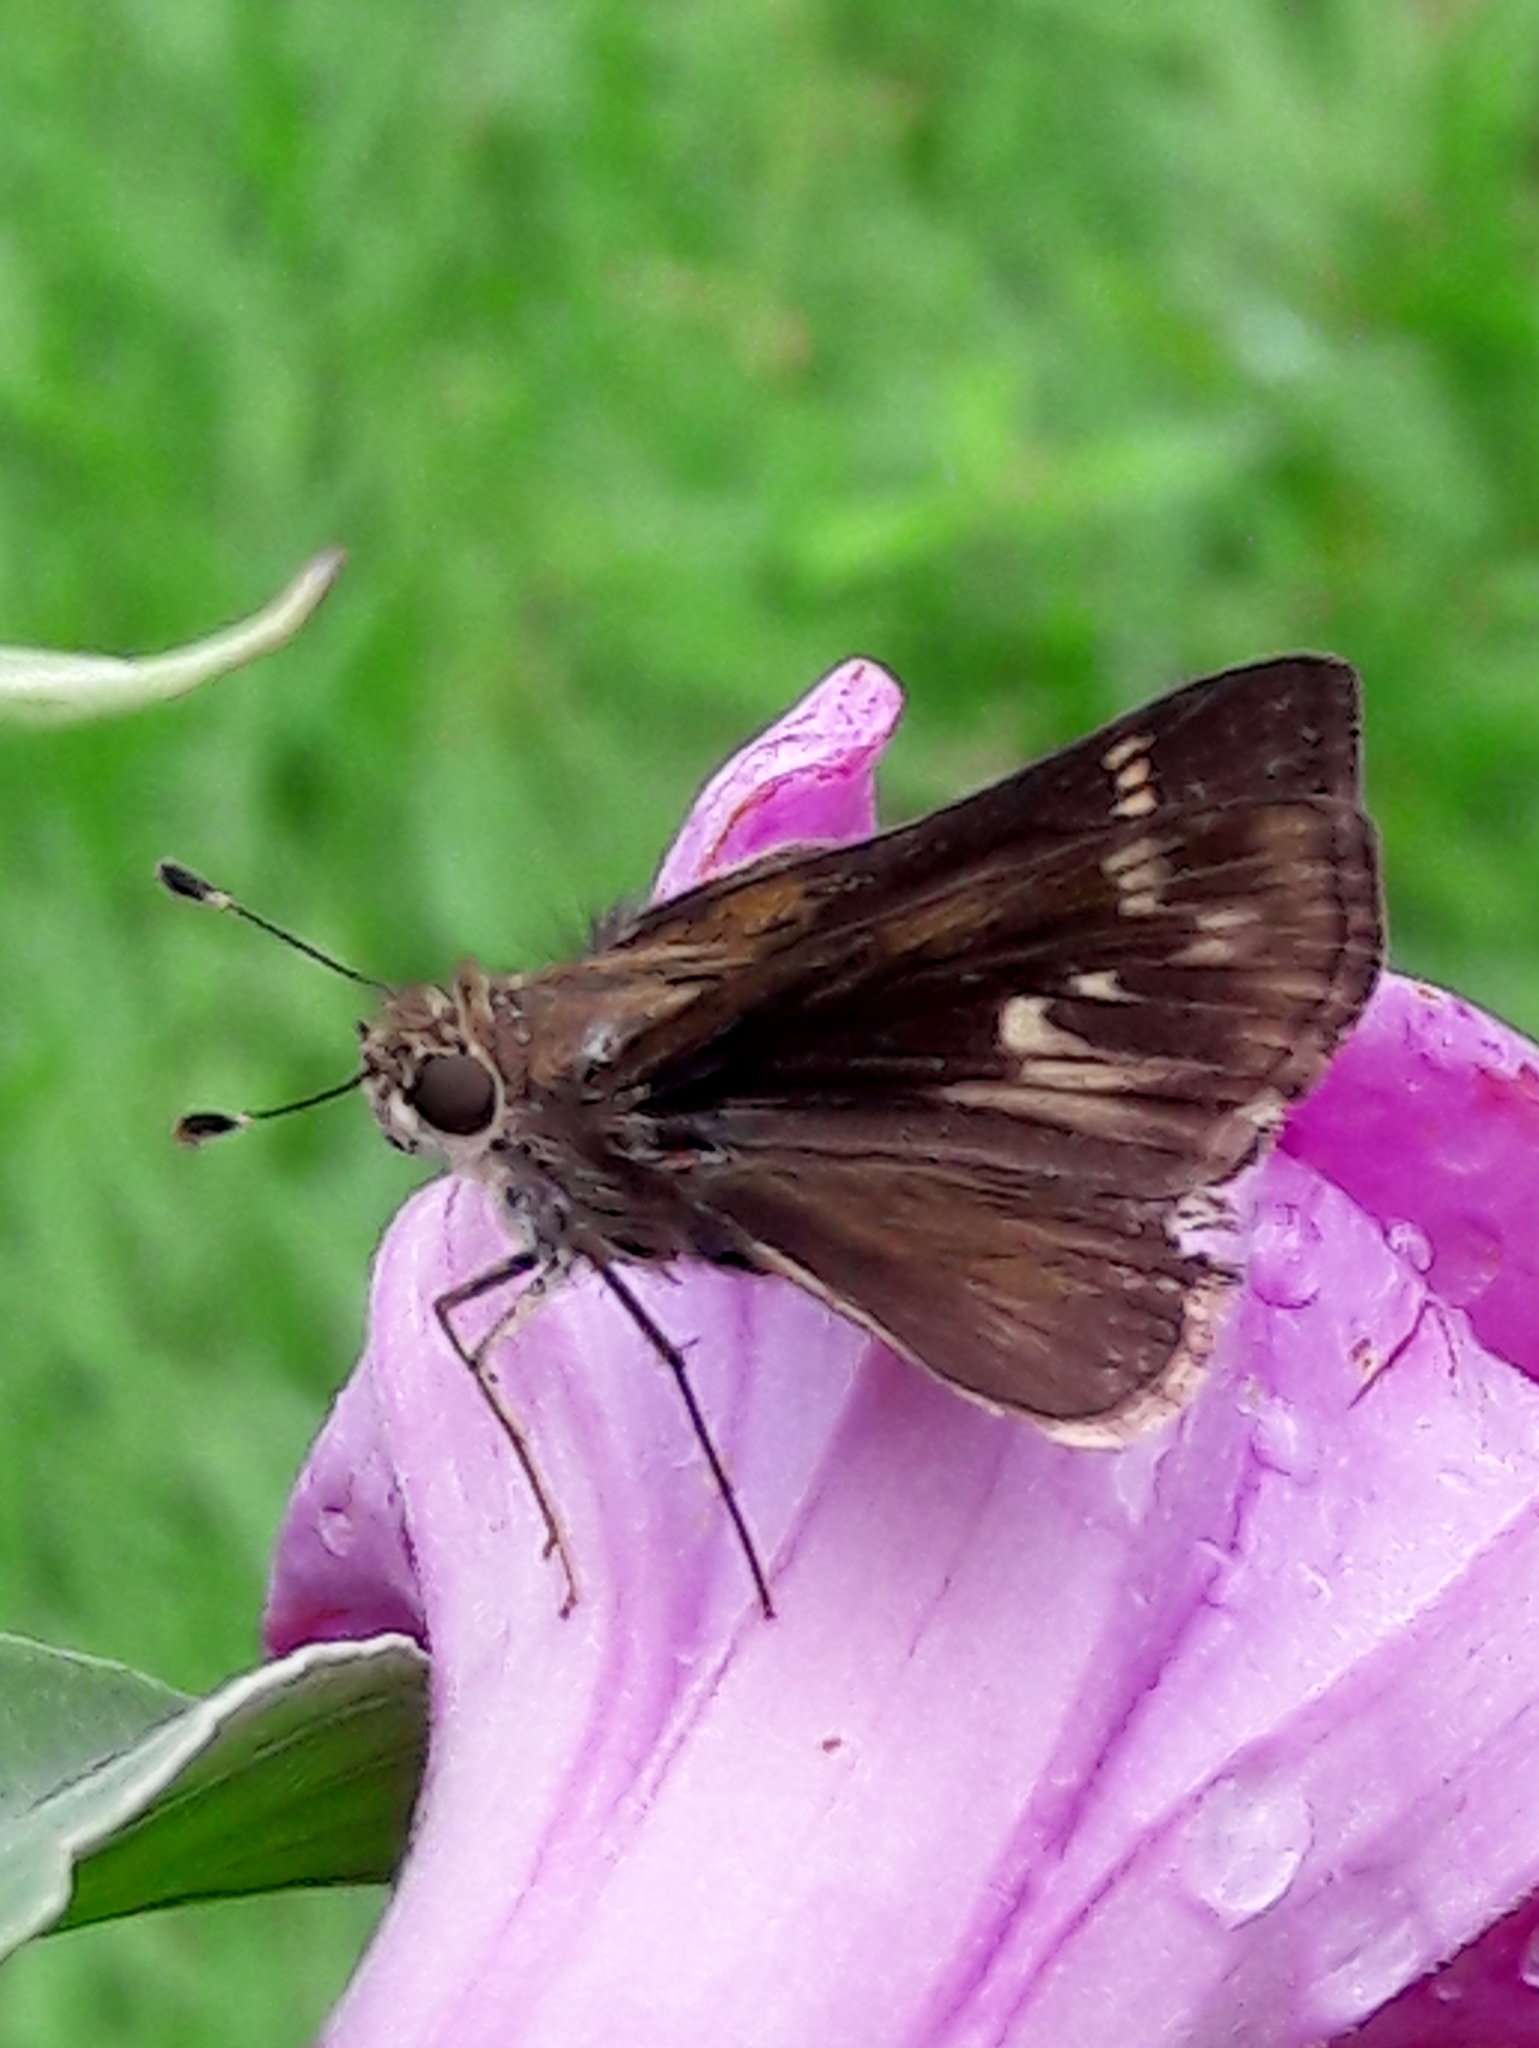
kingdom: Animalia
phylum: Arthropoda
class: Insecta
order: Lepidoptera
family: Hesperiidae
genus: Pompeius
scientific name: Pompeius pompeius
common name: Pompeius skipper
